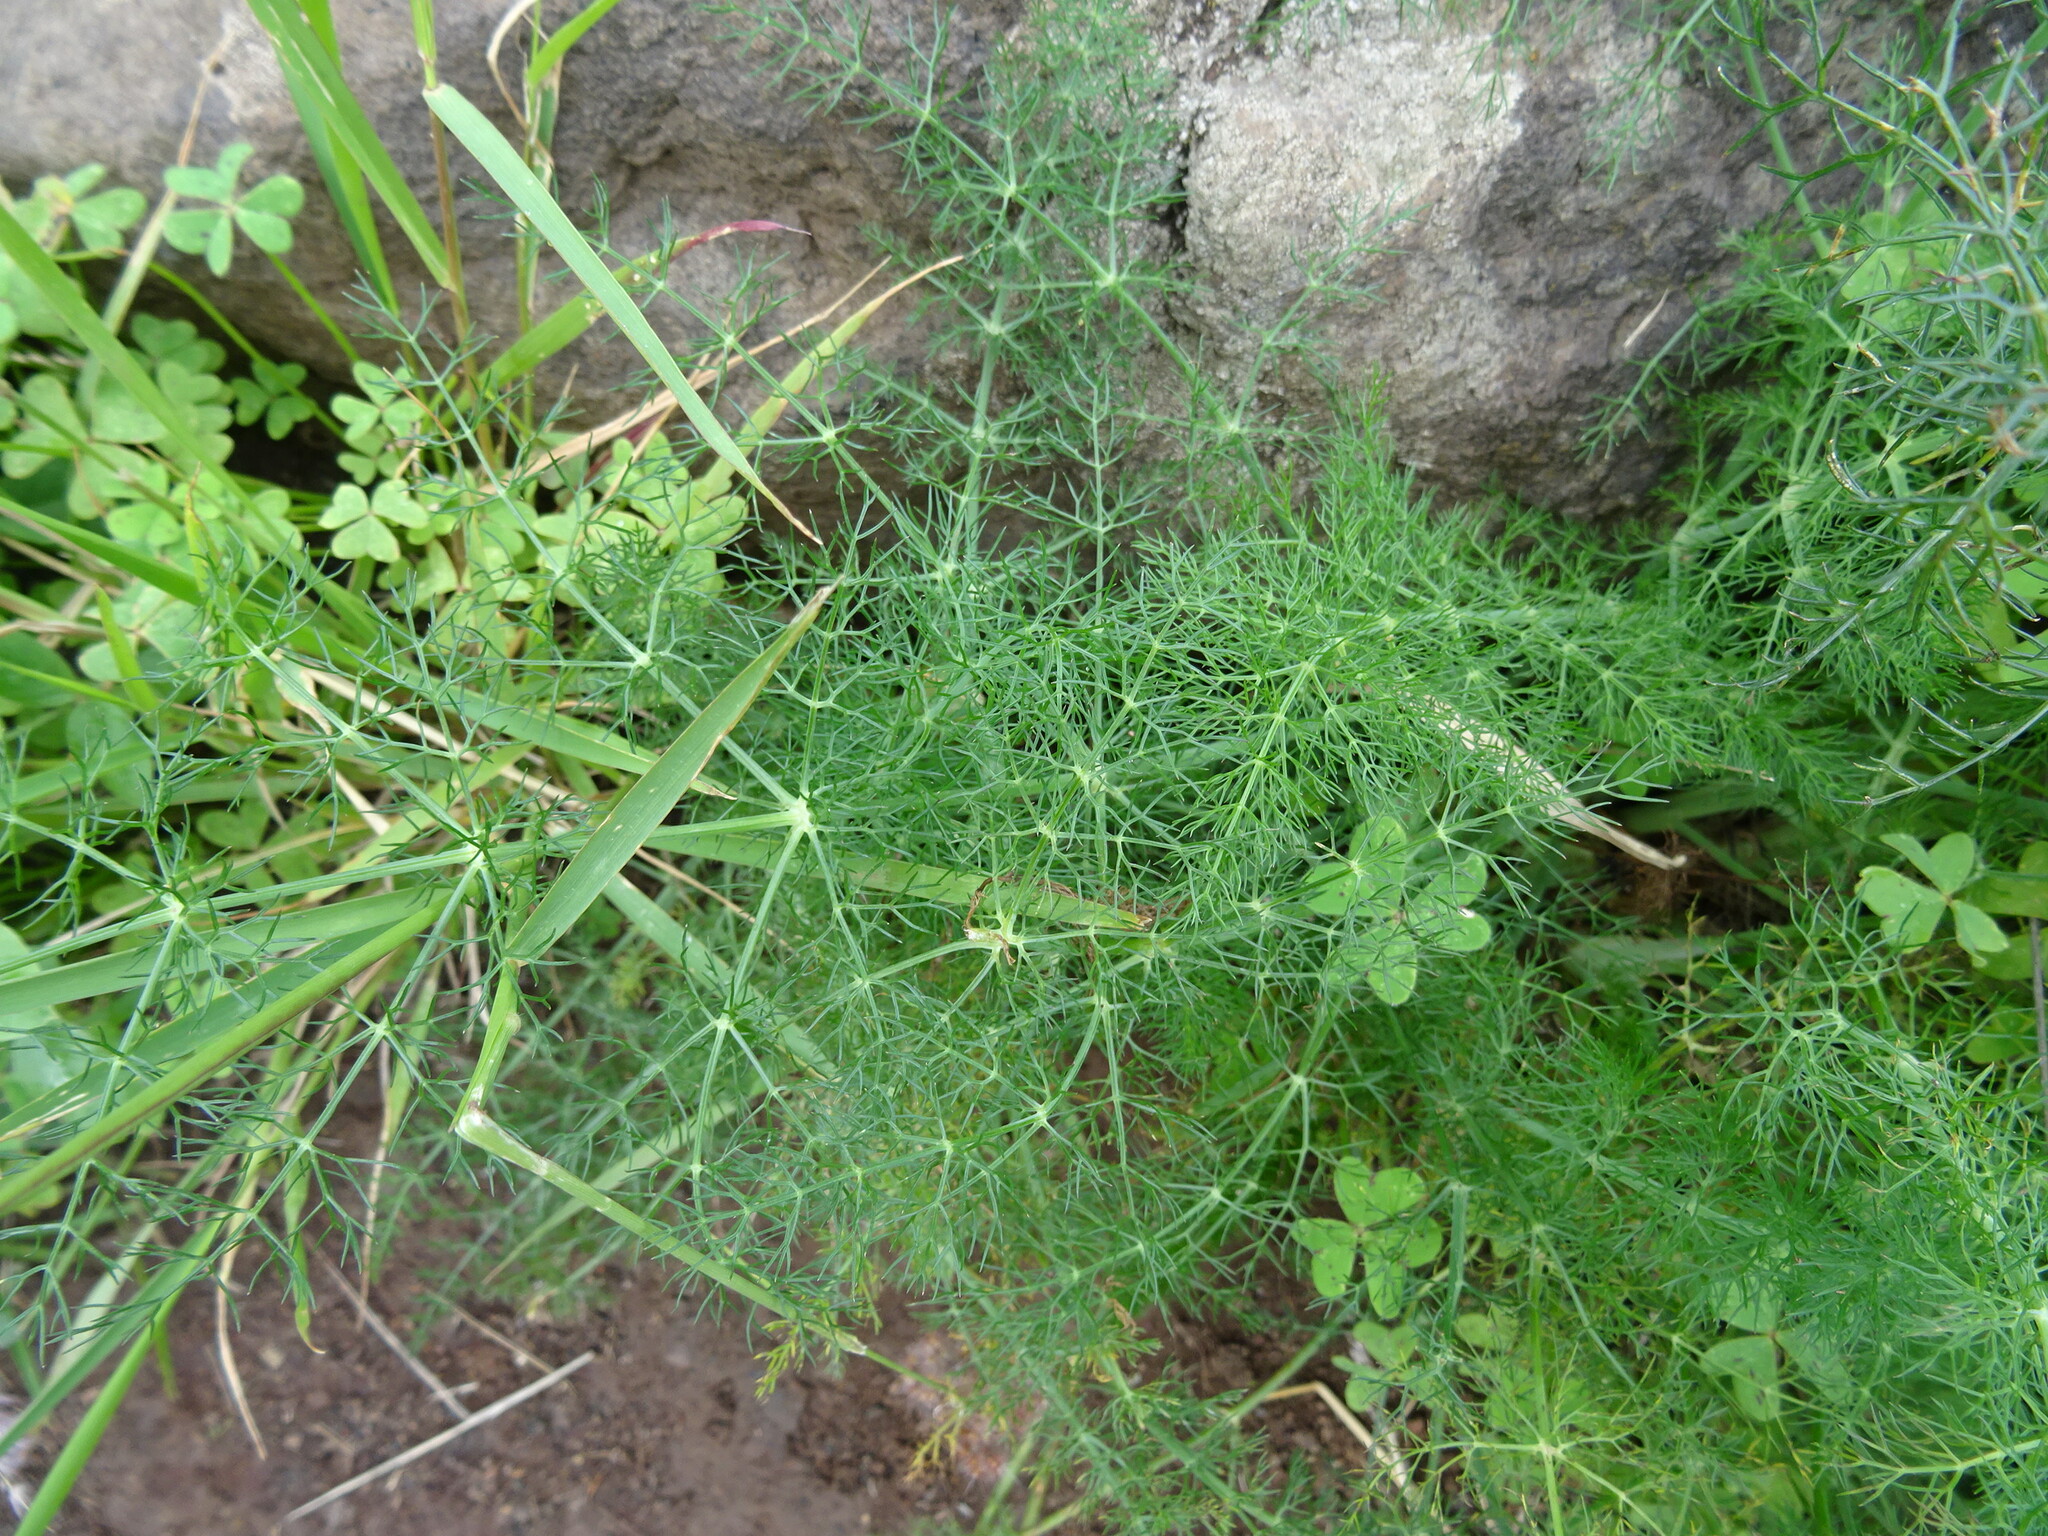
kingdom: Plantae
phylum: Tracheophyta
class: Magnoliopsida
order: Apiales
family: Apiaceae
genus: Foeniculum
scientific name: Foeniculum vulgare
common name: Fennel
